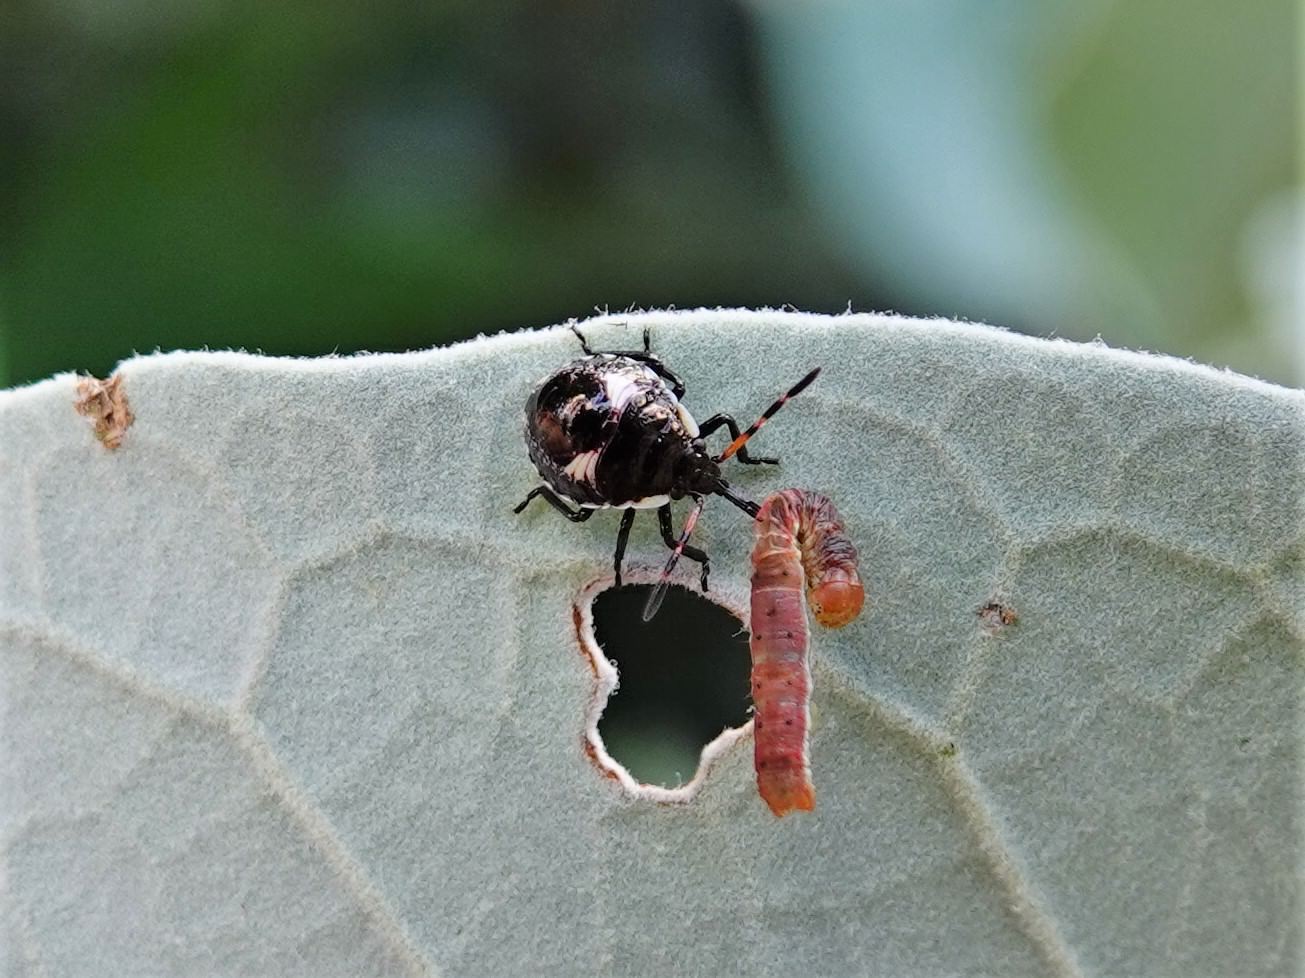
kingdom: Animalia
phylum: Arthropoda
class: Insecta
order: Hemiptera
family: Pentatomidae
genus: Cermatulus
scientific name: Cermatulus nasalis
